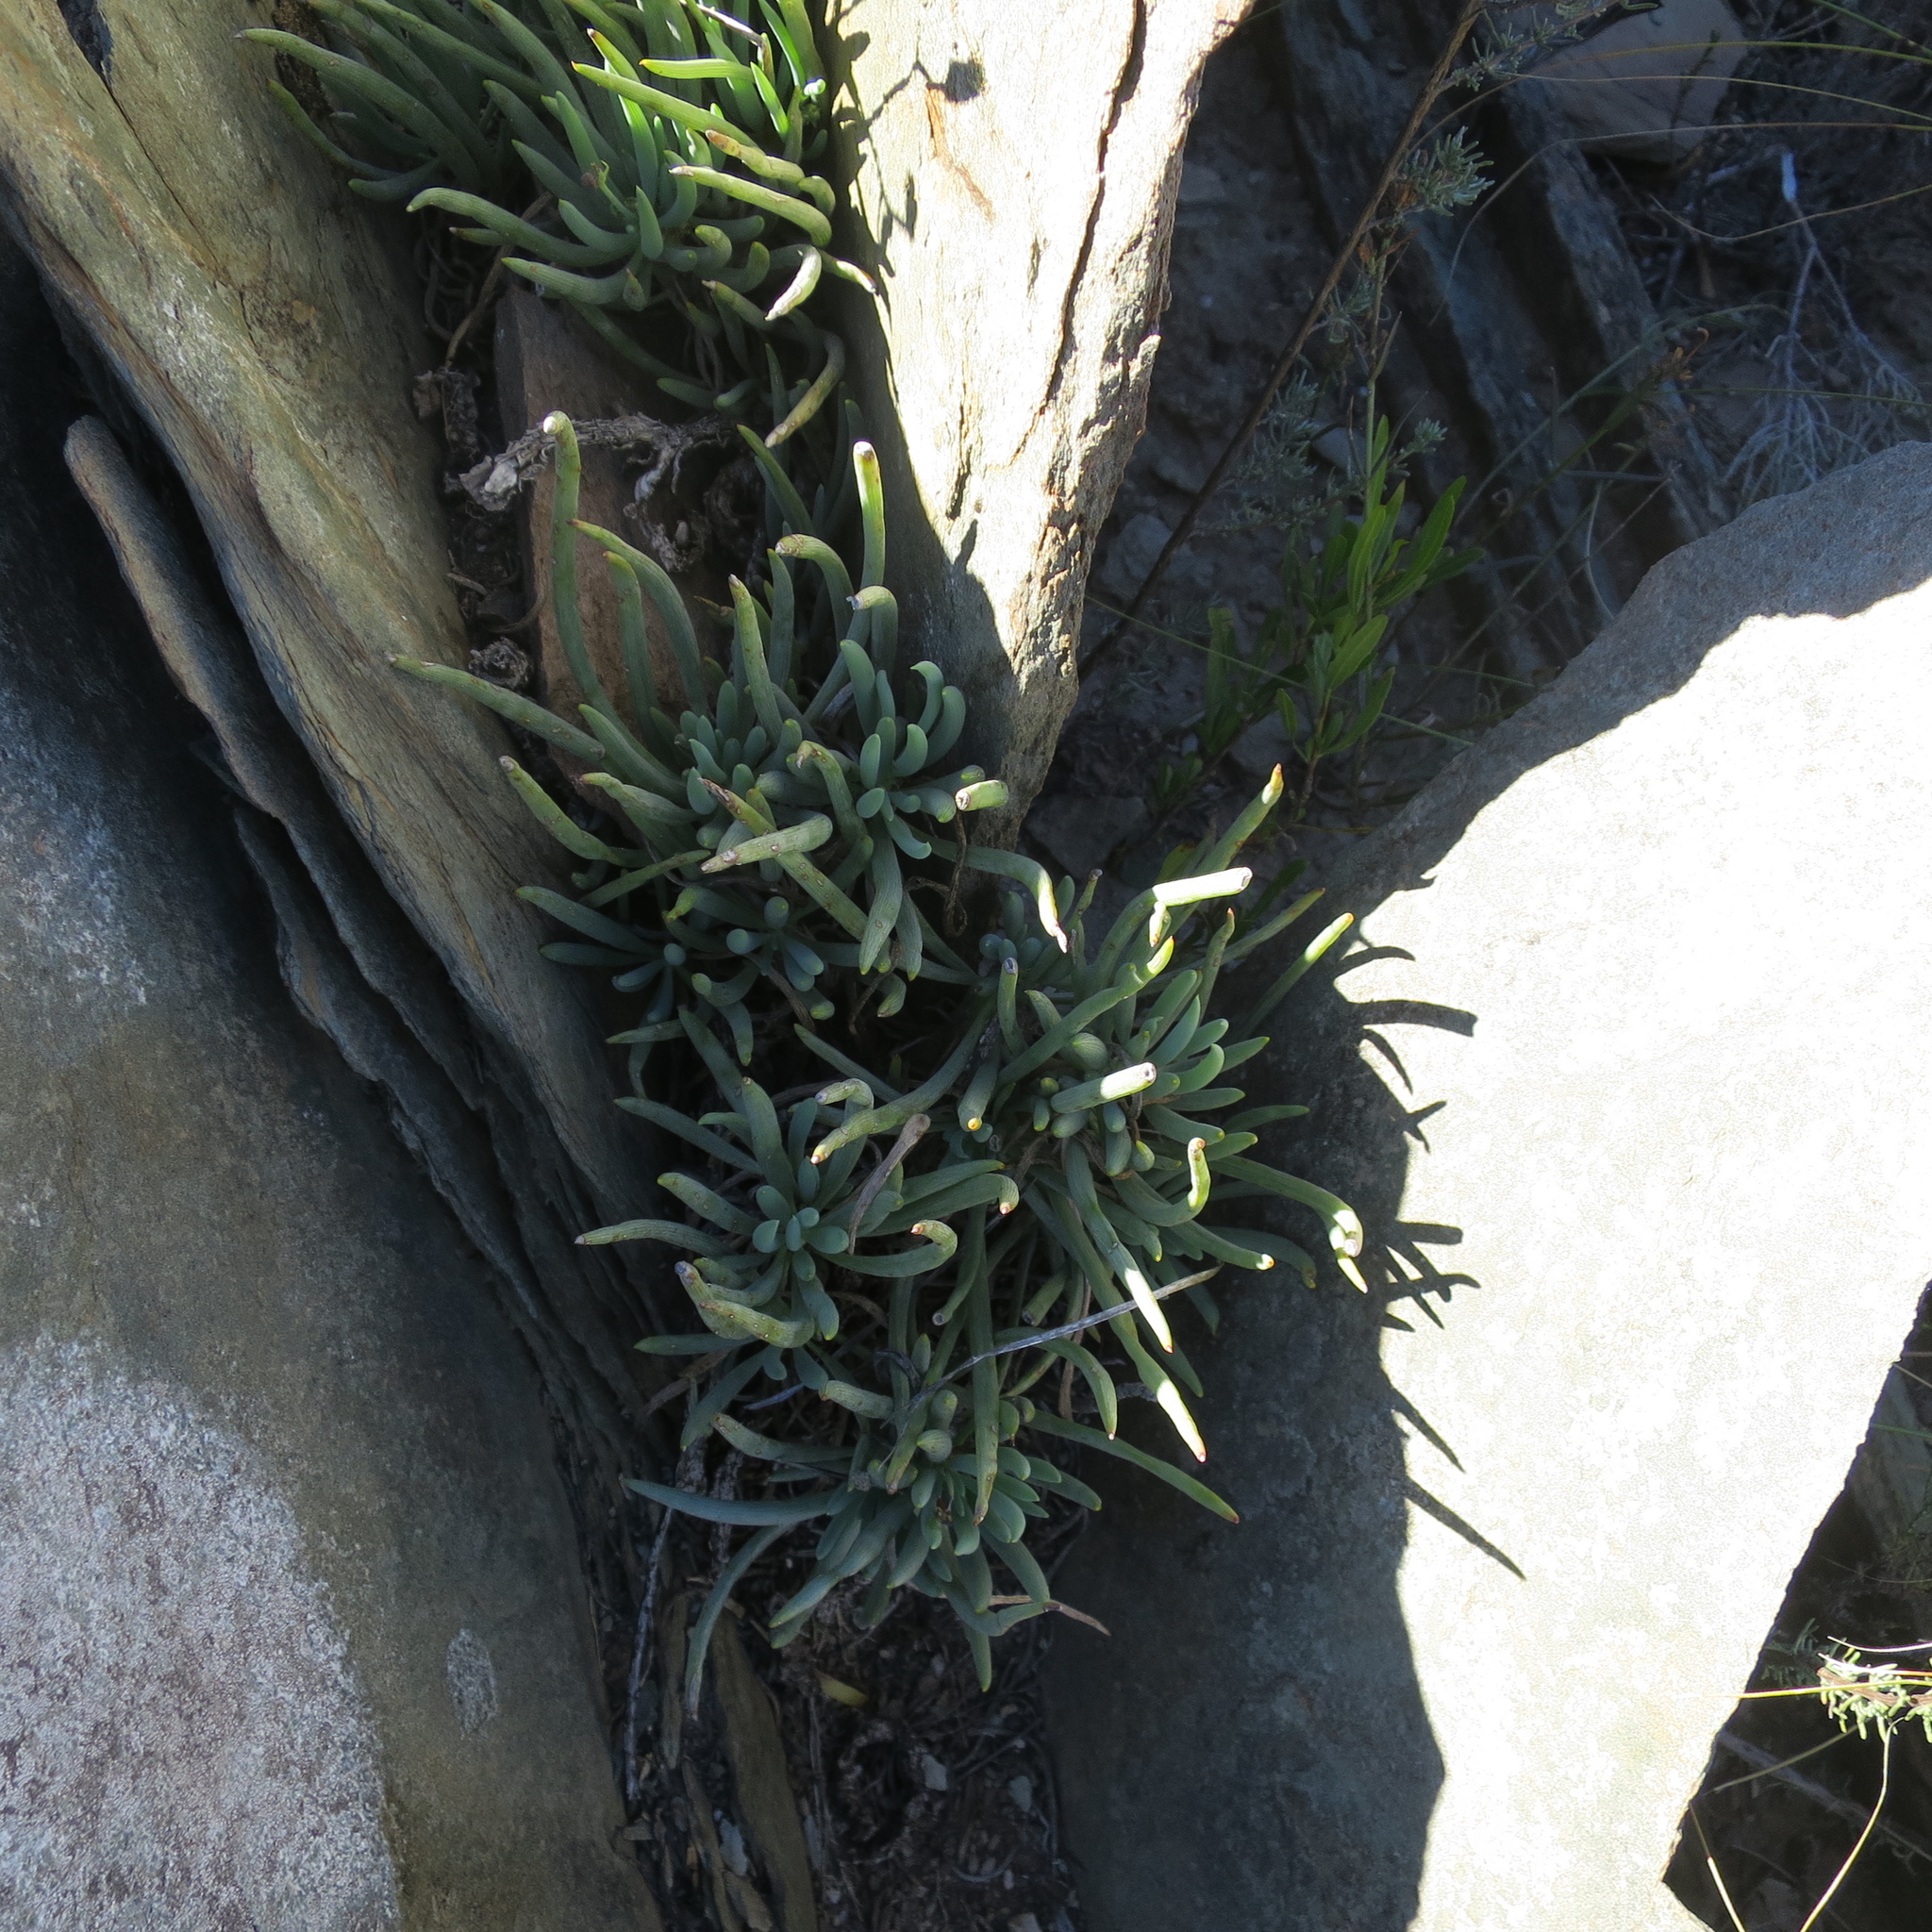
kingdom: Plantae
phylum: Tracheophyta
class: Magnoliopsida
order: Asterales
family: Asteraceae
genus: Curio
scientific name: Curio talinoides
